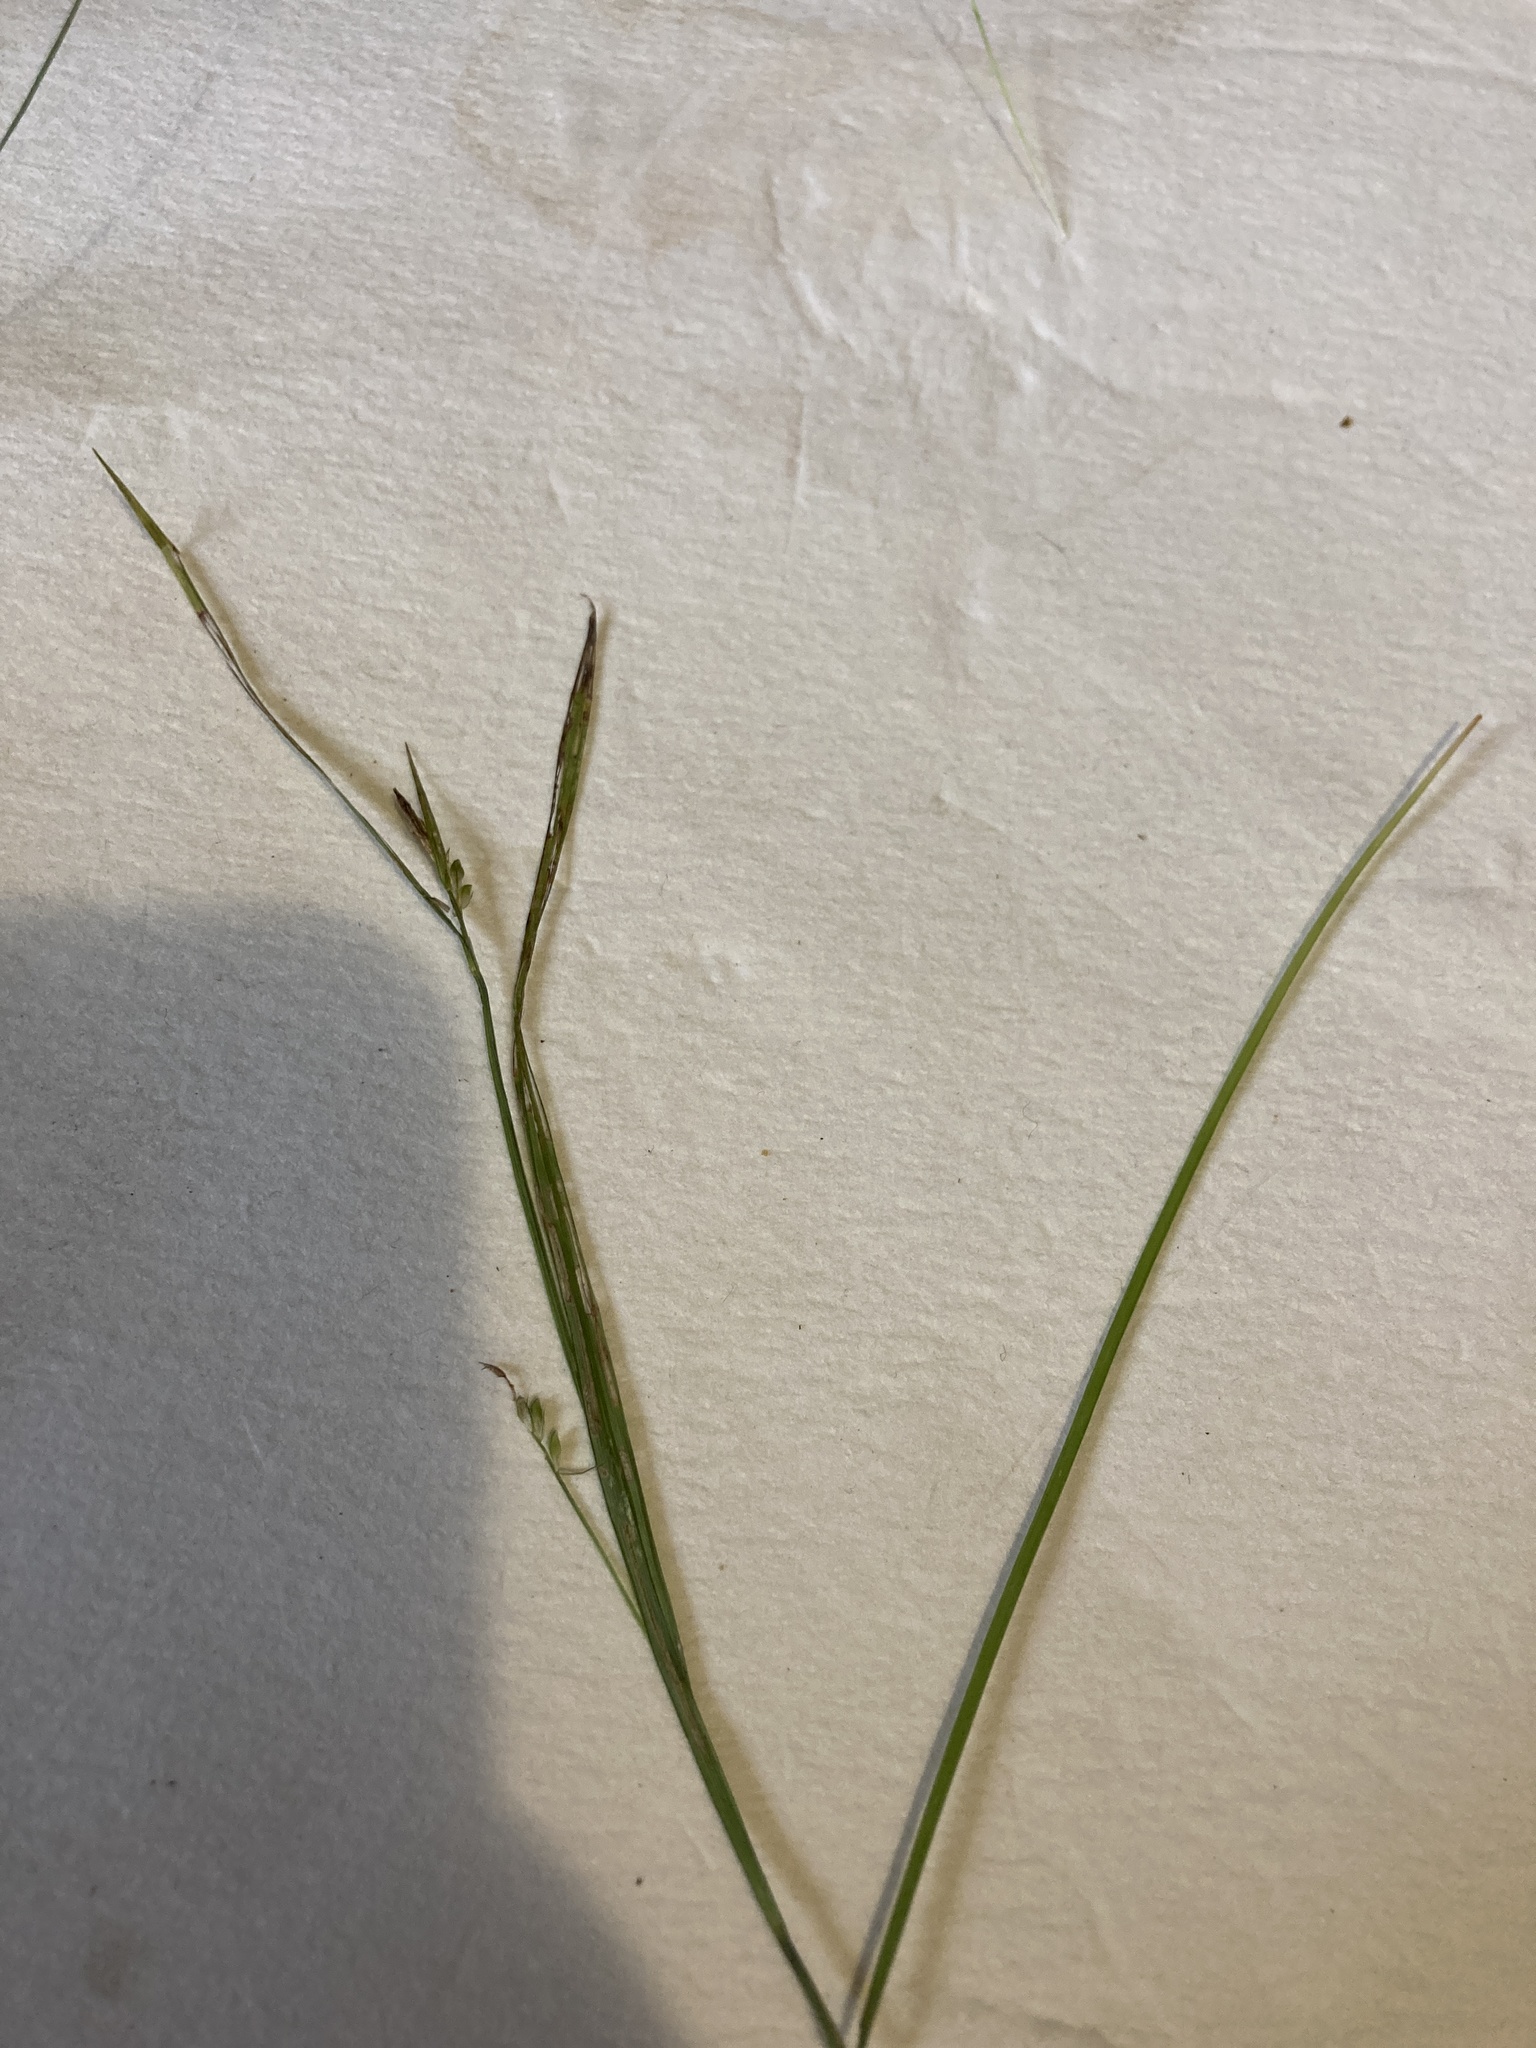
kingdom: Plantae
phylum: Tracheophyta
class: Liliopsida
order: Poales
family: Cyperaceae
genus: Carex
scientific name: Carex leptonervia
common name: Few-nerved wood sedge
